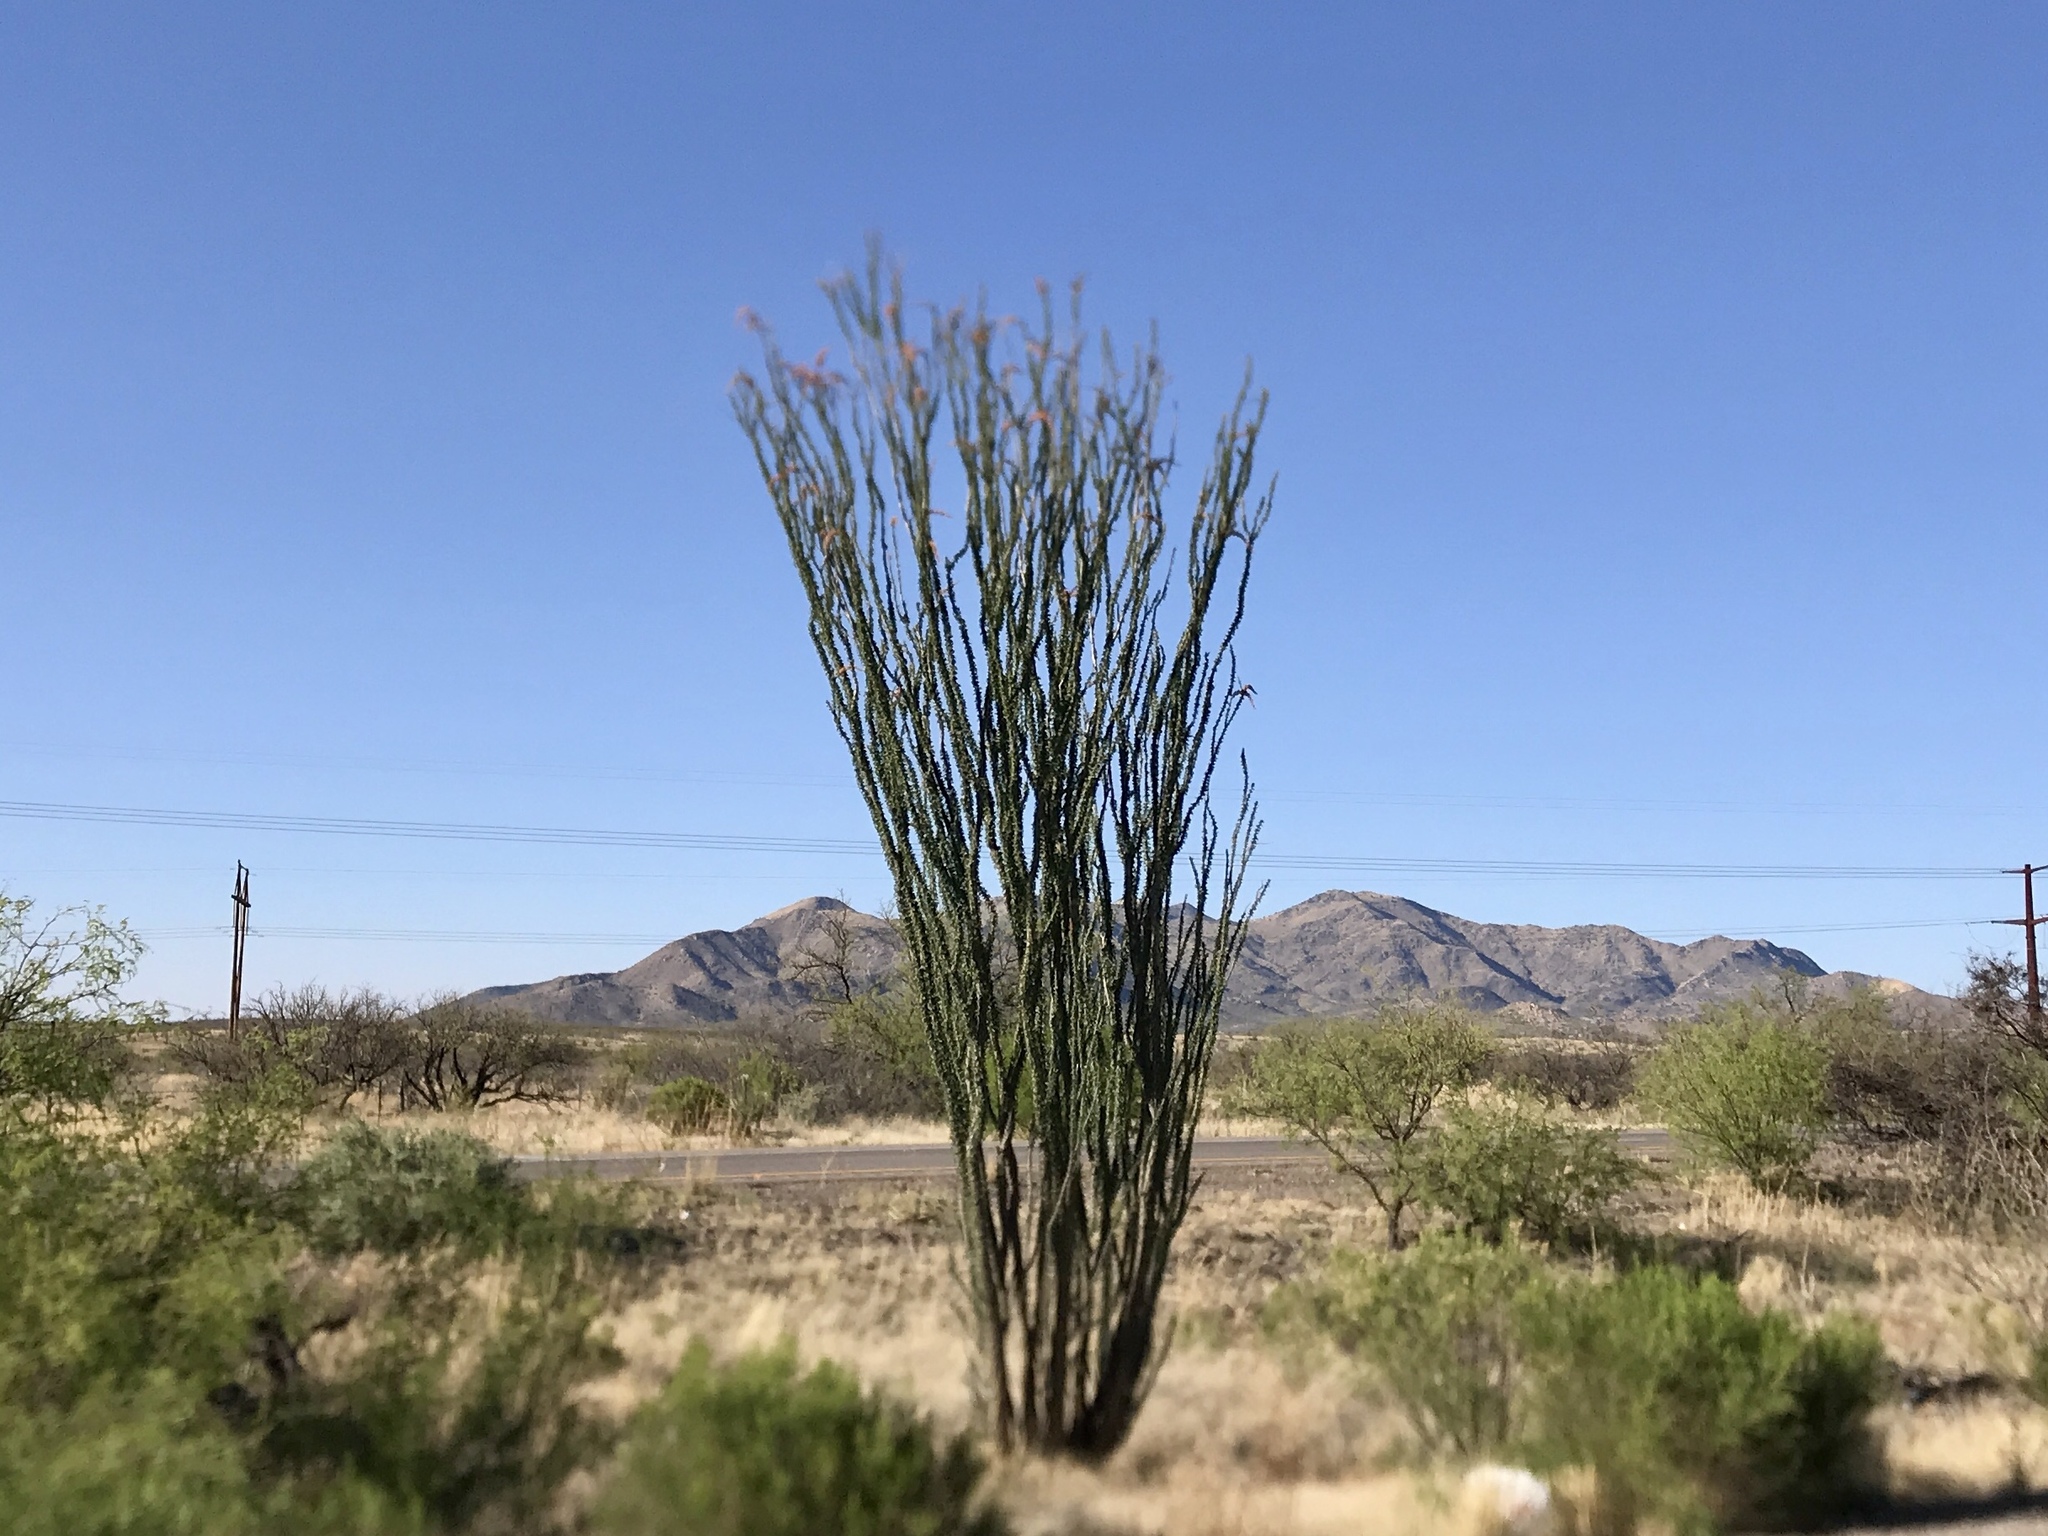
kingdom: Plantae
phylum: Tracheophyta
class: Magnoliopsida
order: Ericales
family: Fouquieriaceae
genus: Fouquieria
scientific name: Fouquieria splendens
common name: Vine-cactus
